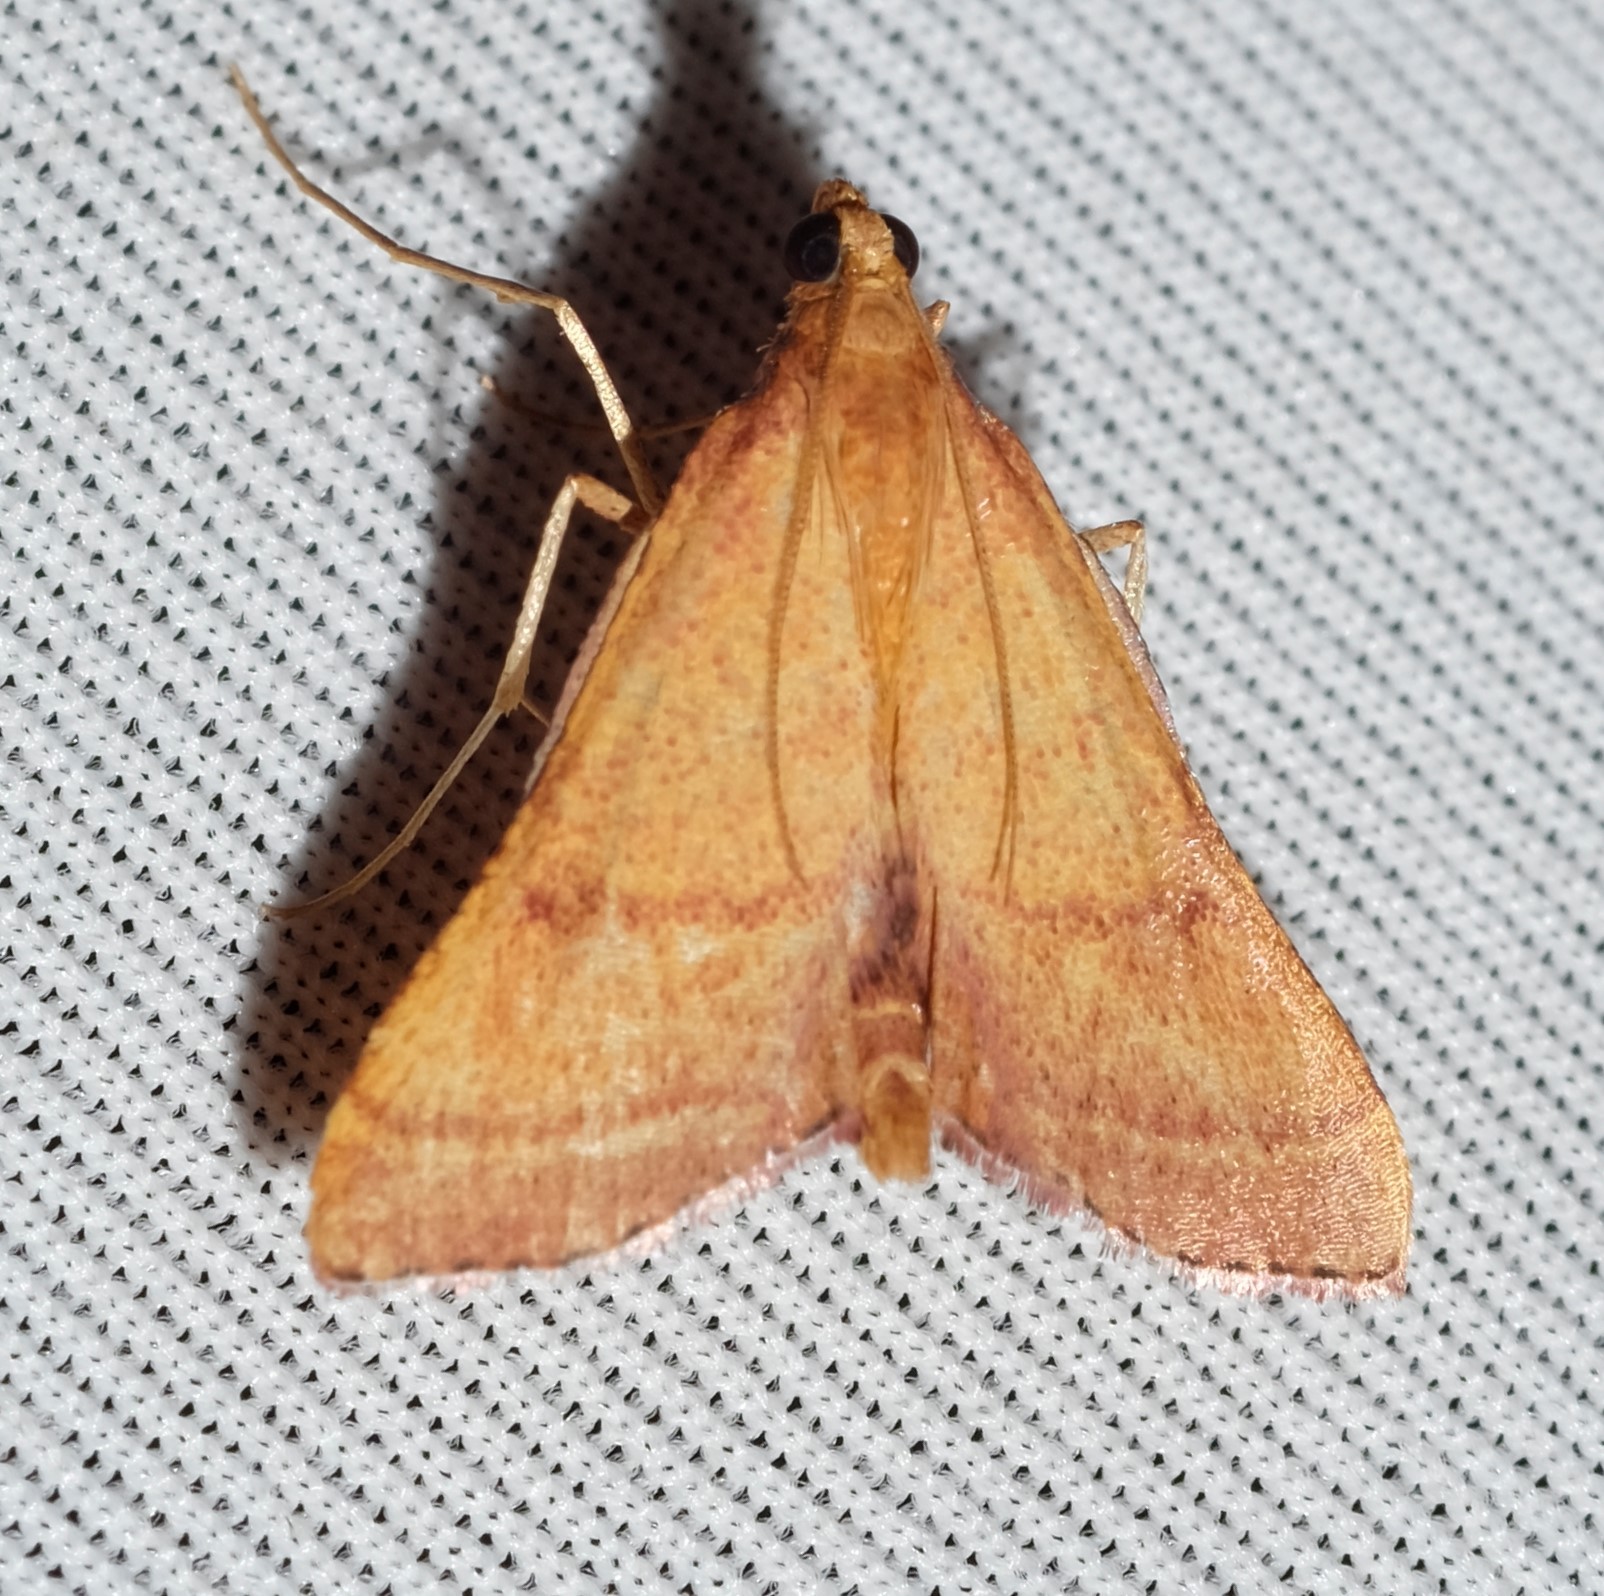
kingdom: Animalia
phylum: Arthropoda
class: Insecta
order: Lepidoptera
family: Pyralidae
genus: Endotricha
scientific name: Endotricha pyrosalis
